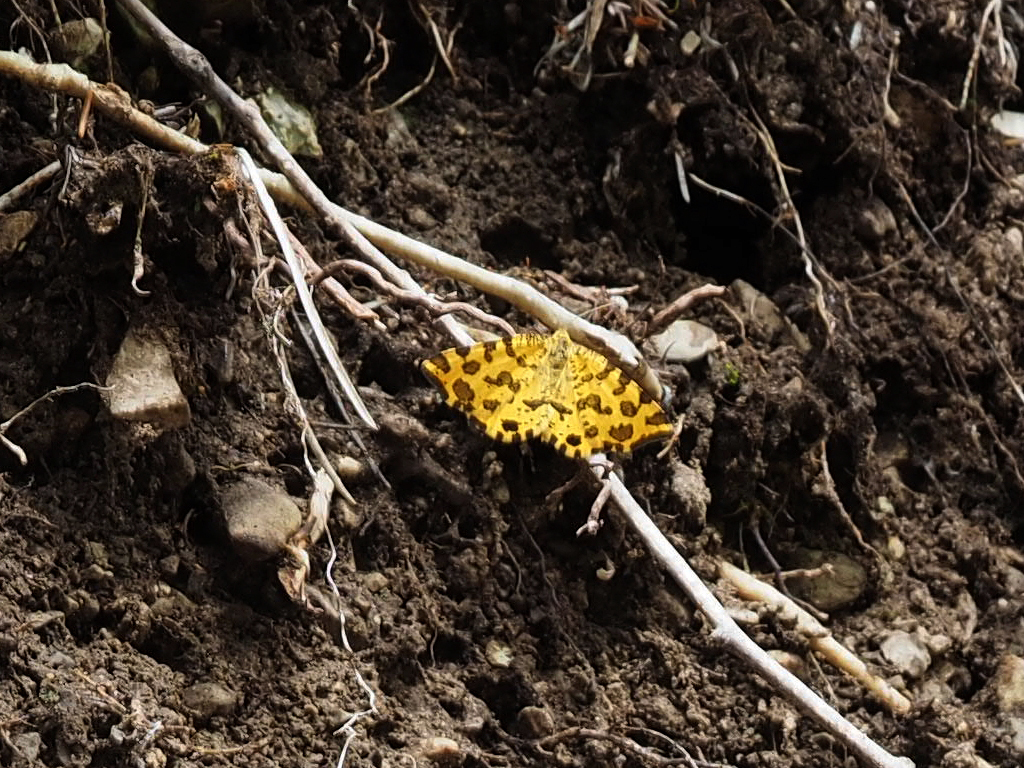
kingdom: Animalia
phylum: Arthropoda
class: Insecta
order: Lepidoptera
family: Geometridae
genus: Pseudopanthera
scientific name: Pseudopanthera macularia
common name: Speckled yellow
